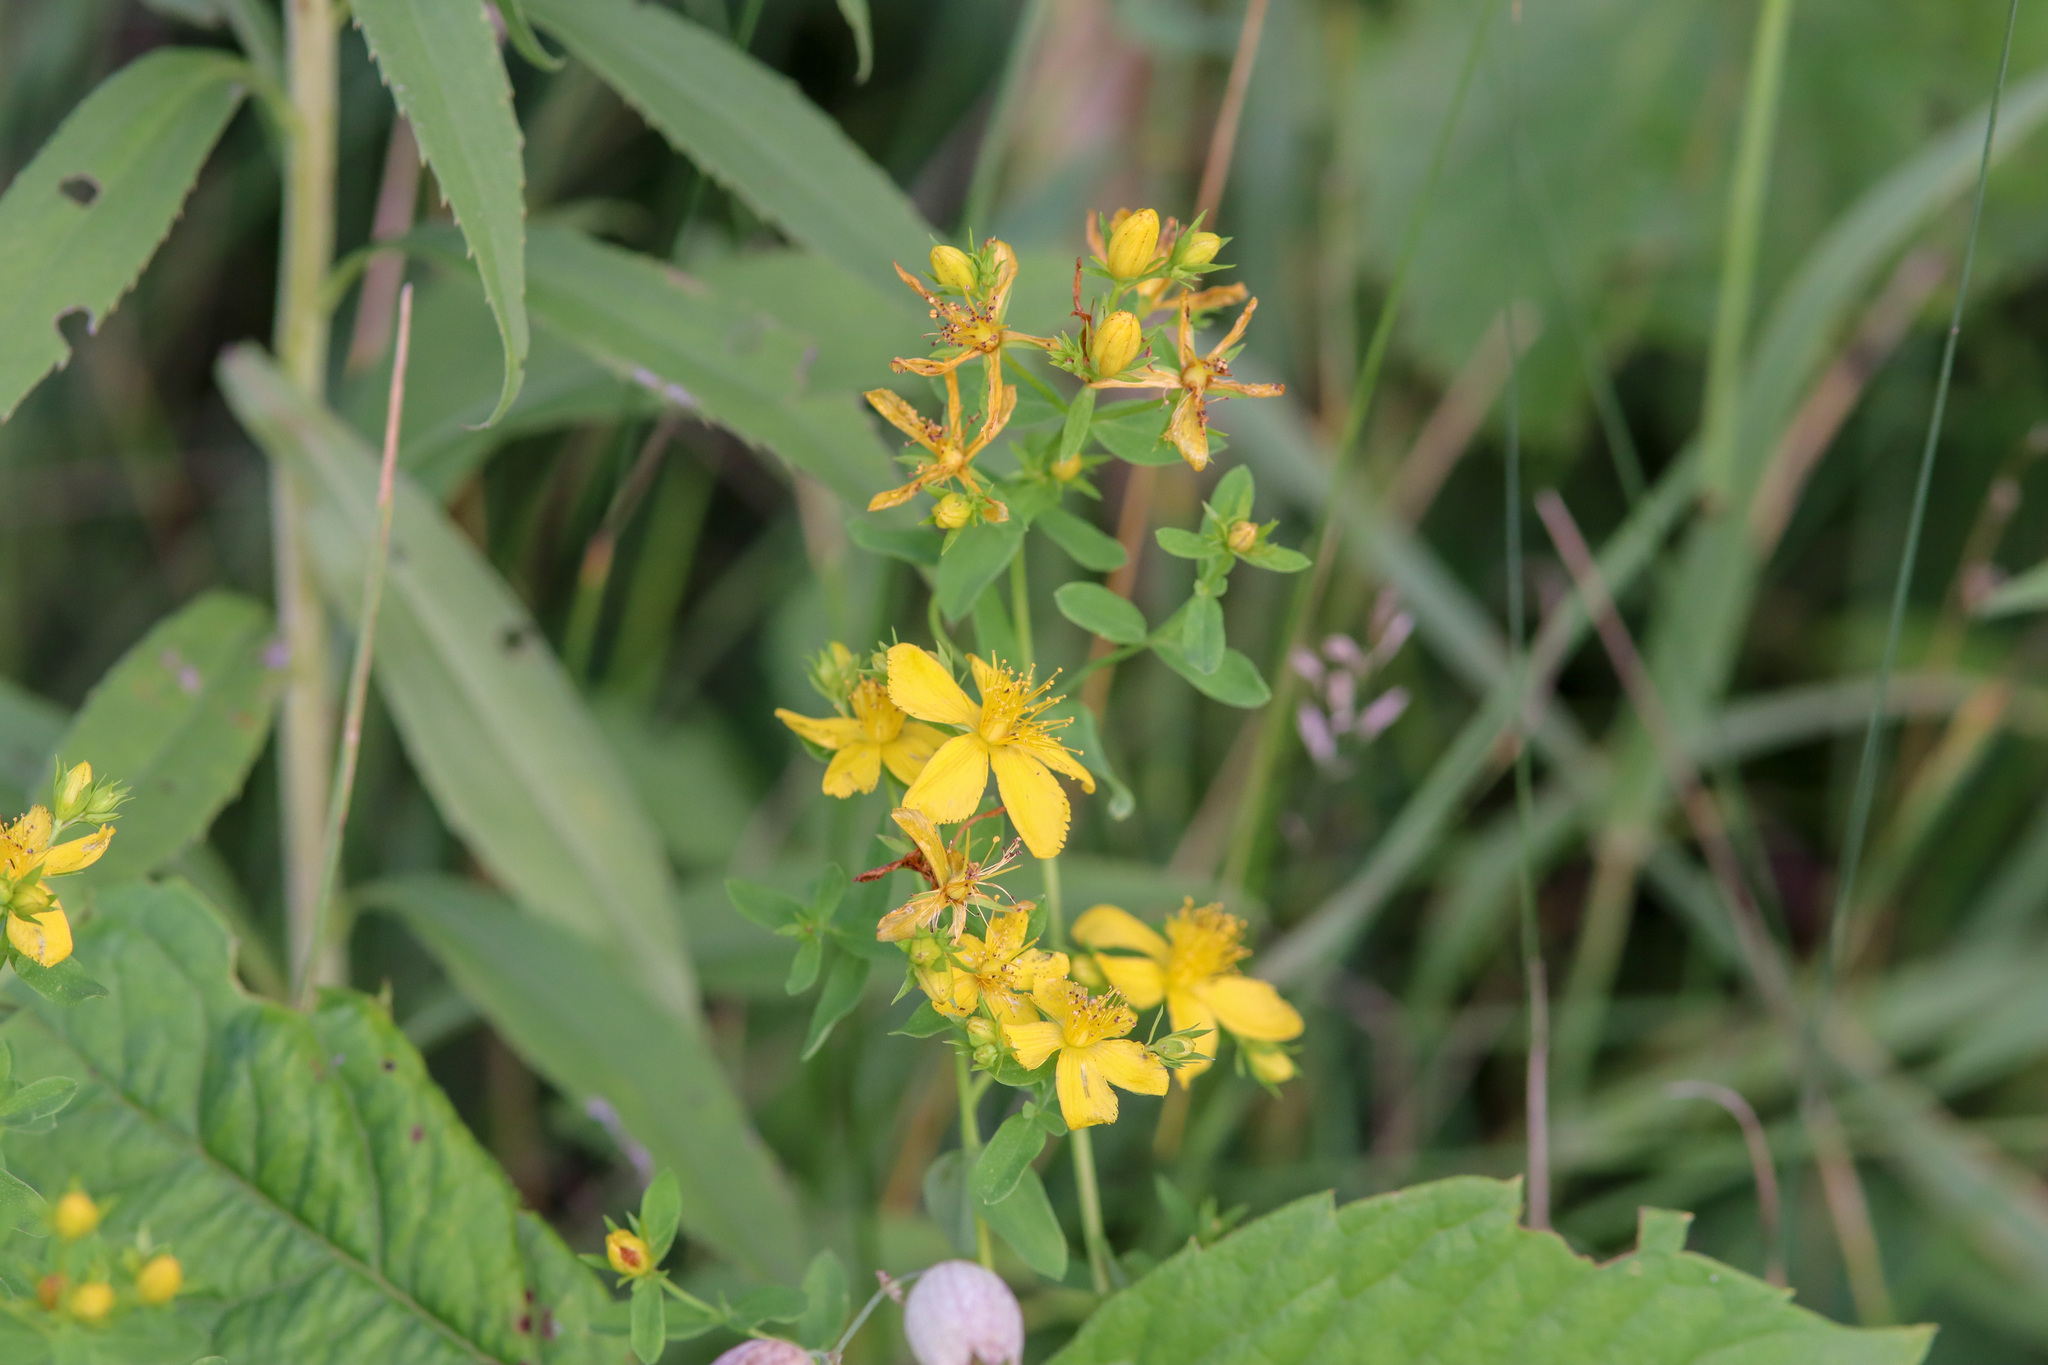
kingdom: Plantae
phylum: Tracheophyta
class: Magnoliopsida
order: Malpighiales
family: Hypericaceae
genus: Hypericum
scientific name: Hypericum perforatum
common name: Common st. johnswort
